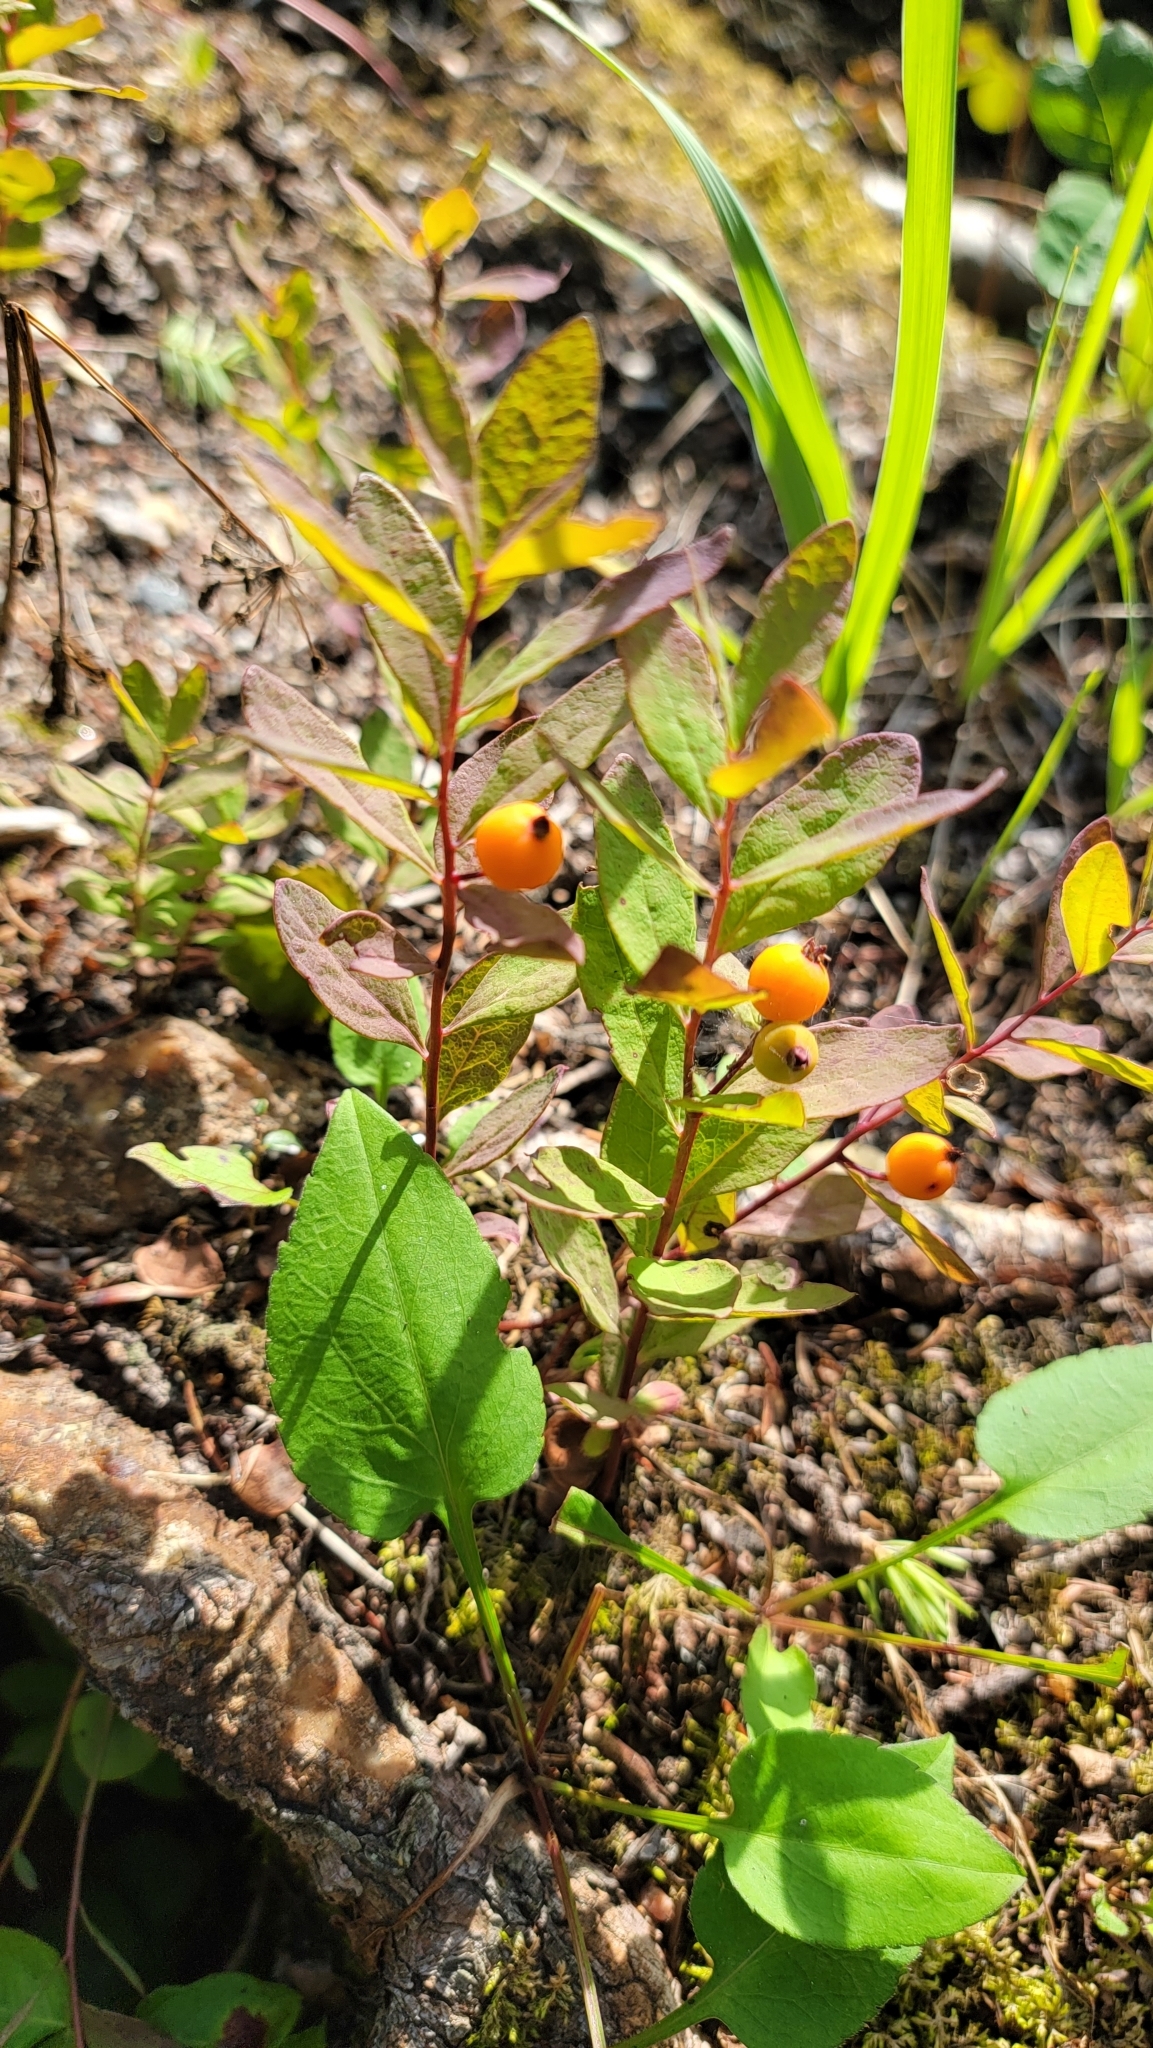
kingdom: Plantae
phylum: Tracheophyta
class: Magnoliopsida
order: Santalales
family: Comandraceae
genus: Geocaulon
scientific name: Geocaulon lividum
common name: Earthberry
